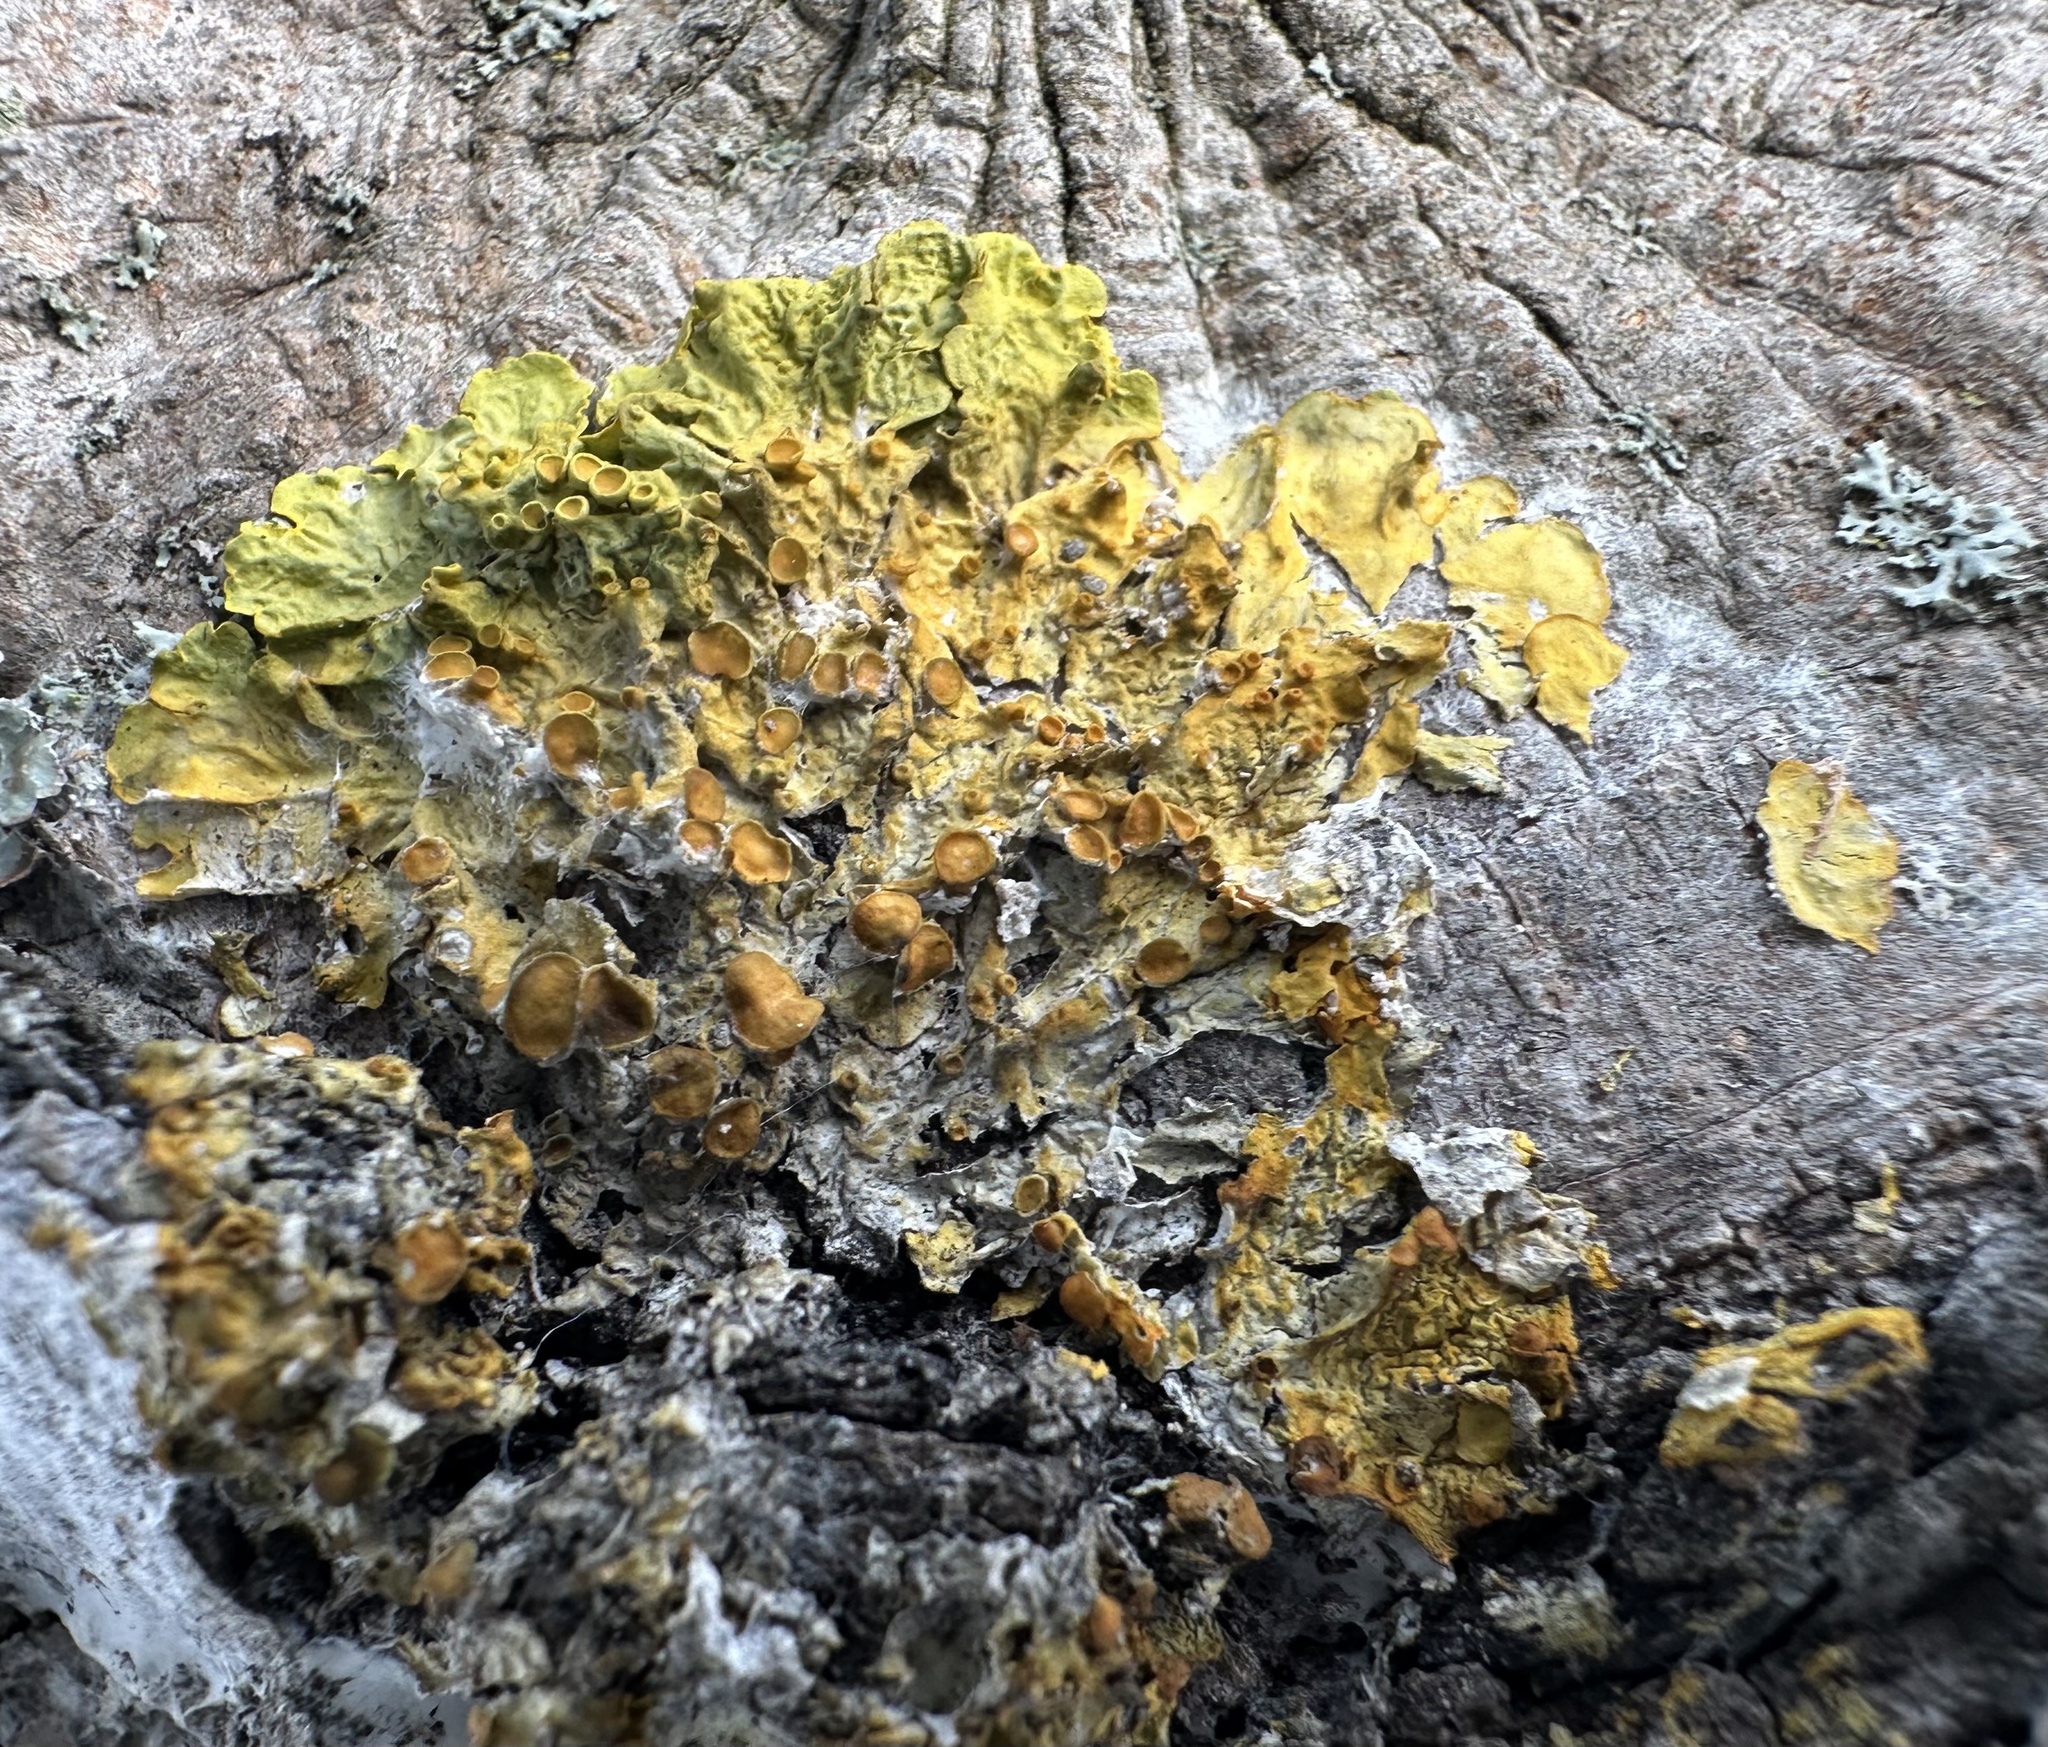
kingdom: Fungi
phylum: Ascomycota
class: Lecanoromycetes
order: Teloschistales
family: Teloschistaceae
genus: Xanthoria
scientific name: Xanthoria parietina
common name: Common orange lichen
